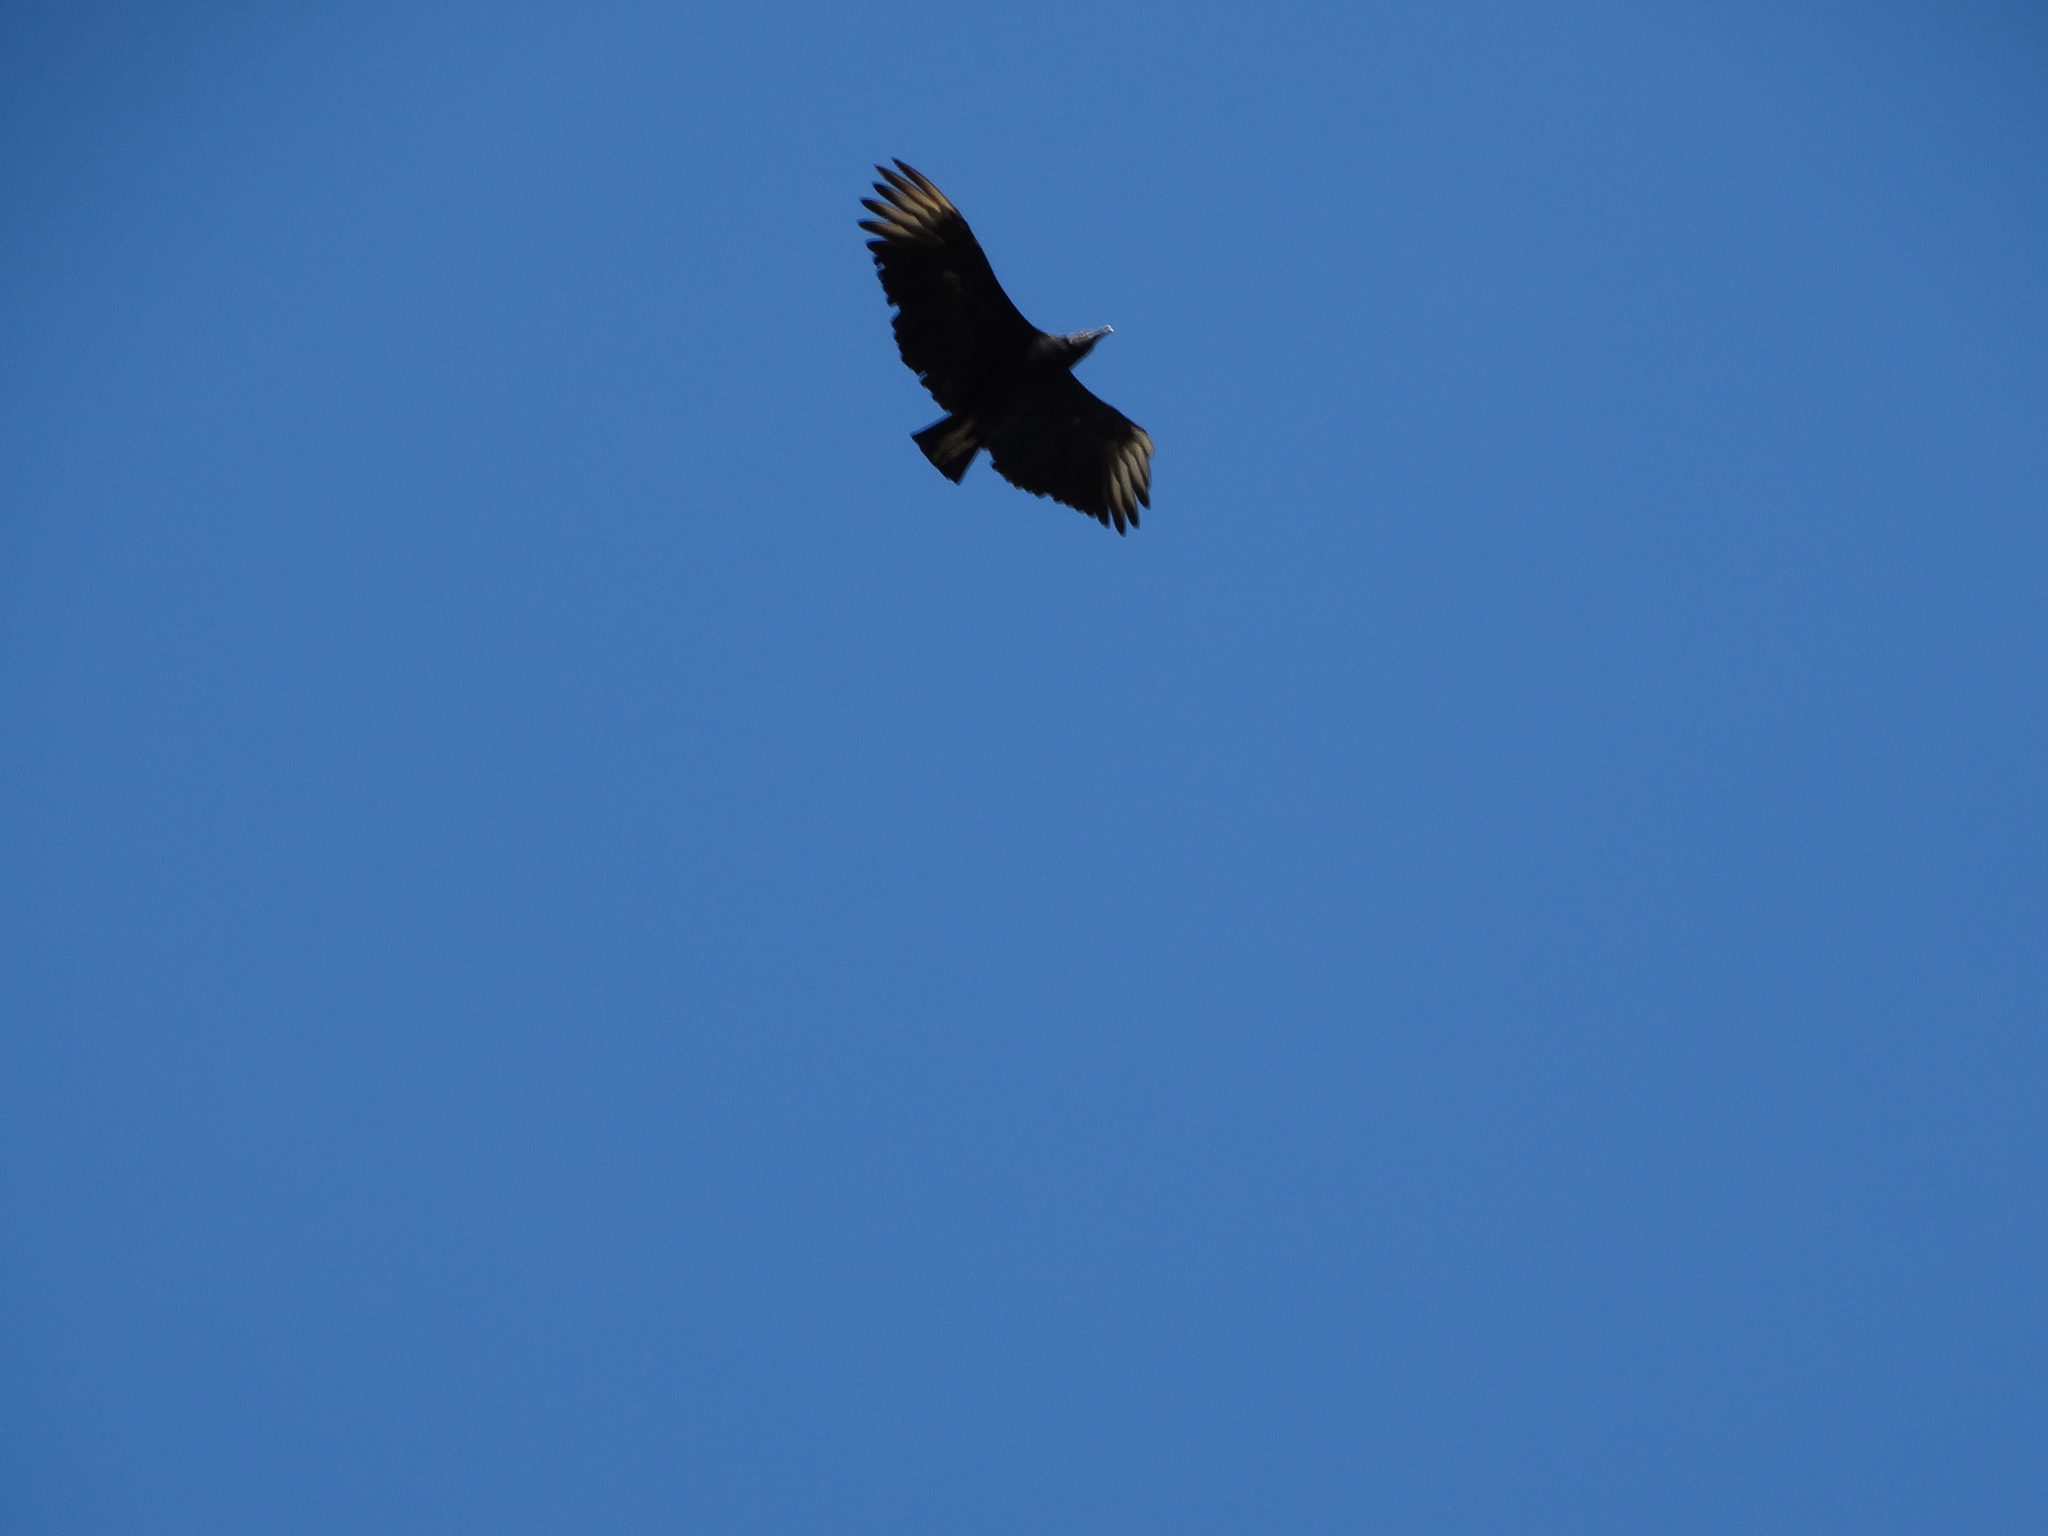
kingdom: Animalia
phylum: Chordata
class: Aves
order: Accipitriformes
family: Cathartidae
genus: Coragyps
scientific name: Coragyps atratus
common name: Black vulture
